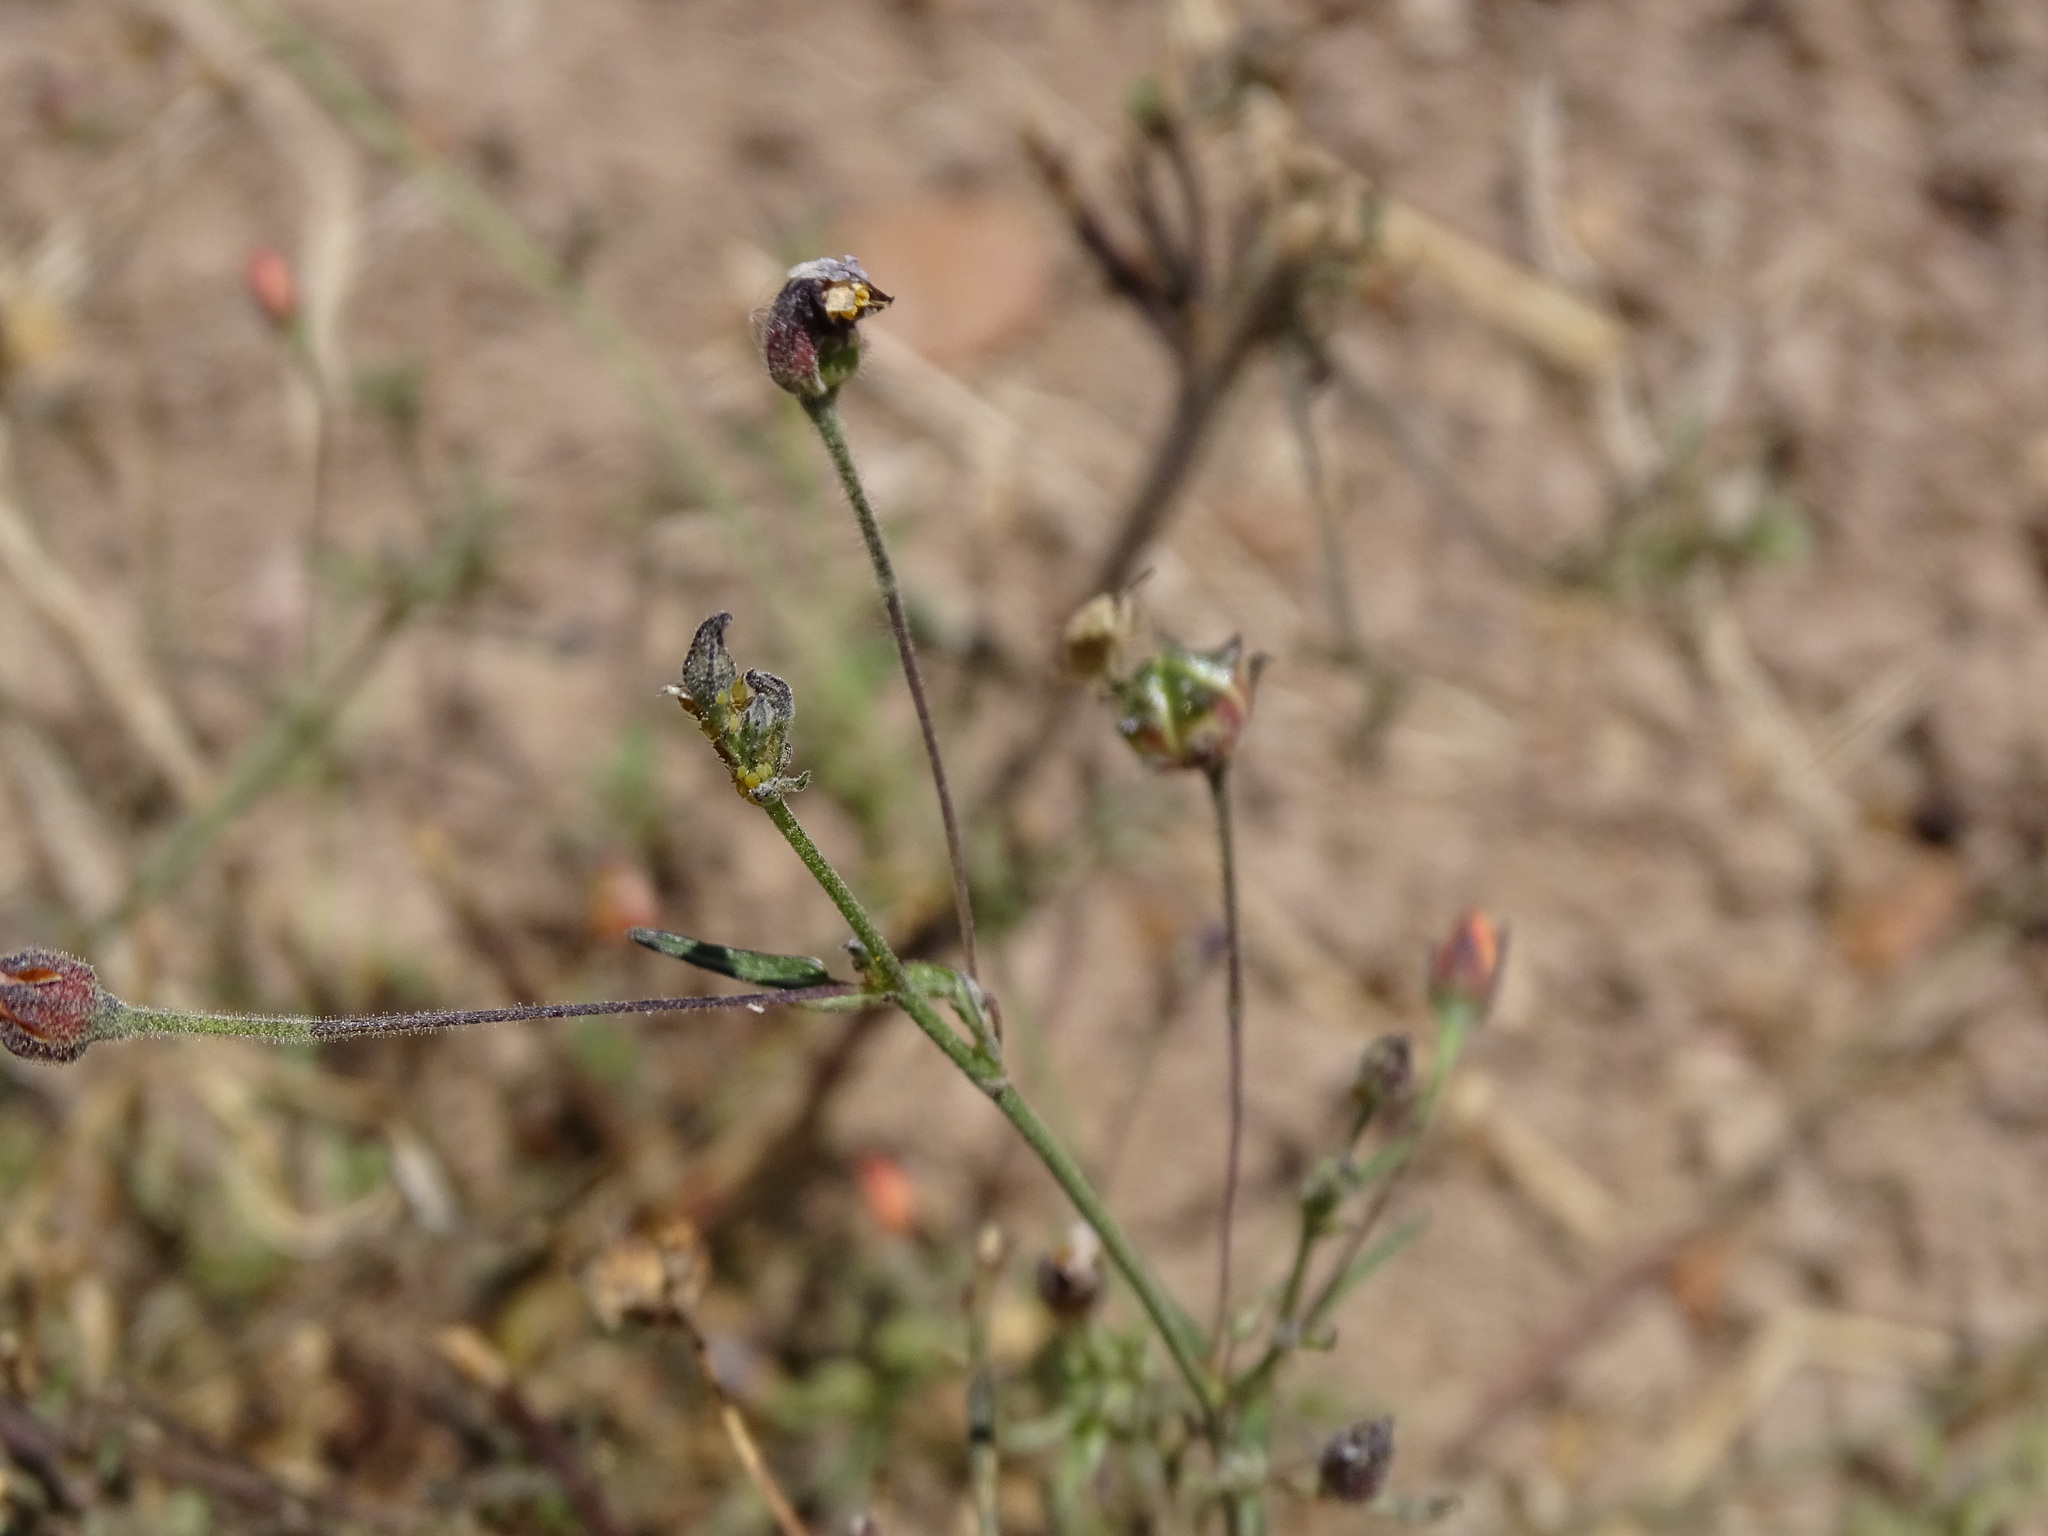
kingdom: Plantae
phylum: Tracheophyta
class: Magnoliopsida
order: Malvales
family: Malvaceae
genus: Anoda
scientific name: Anoda pentaschista
